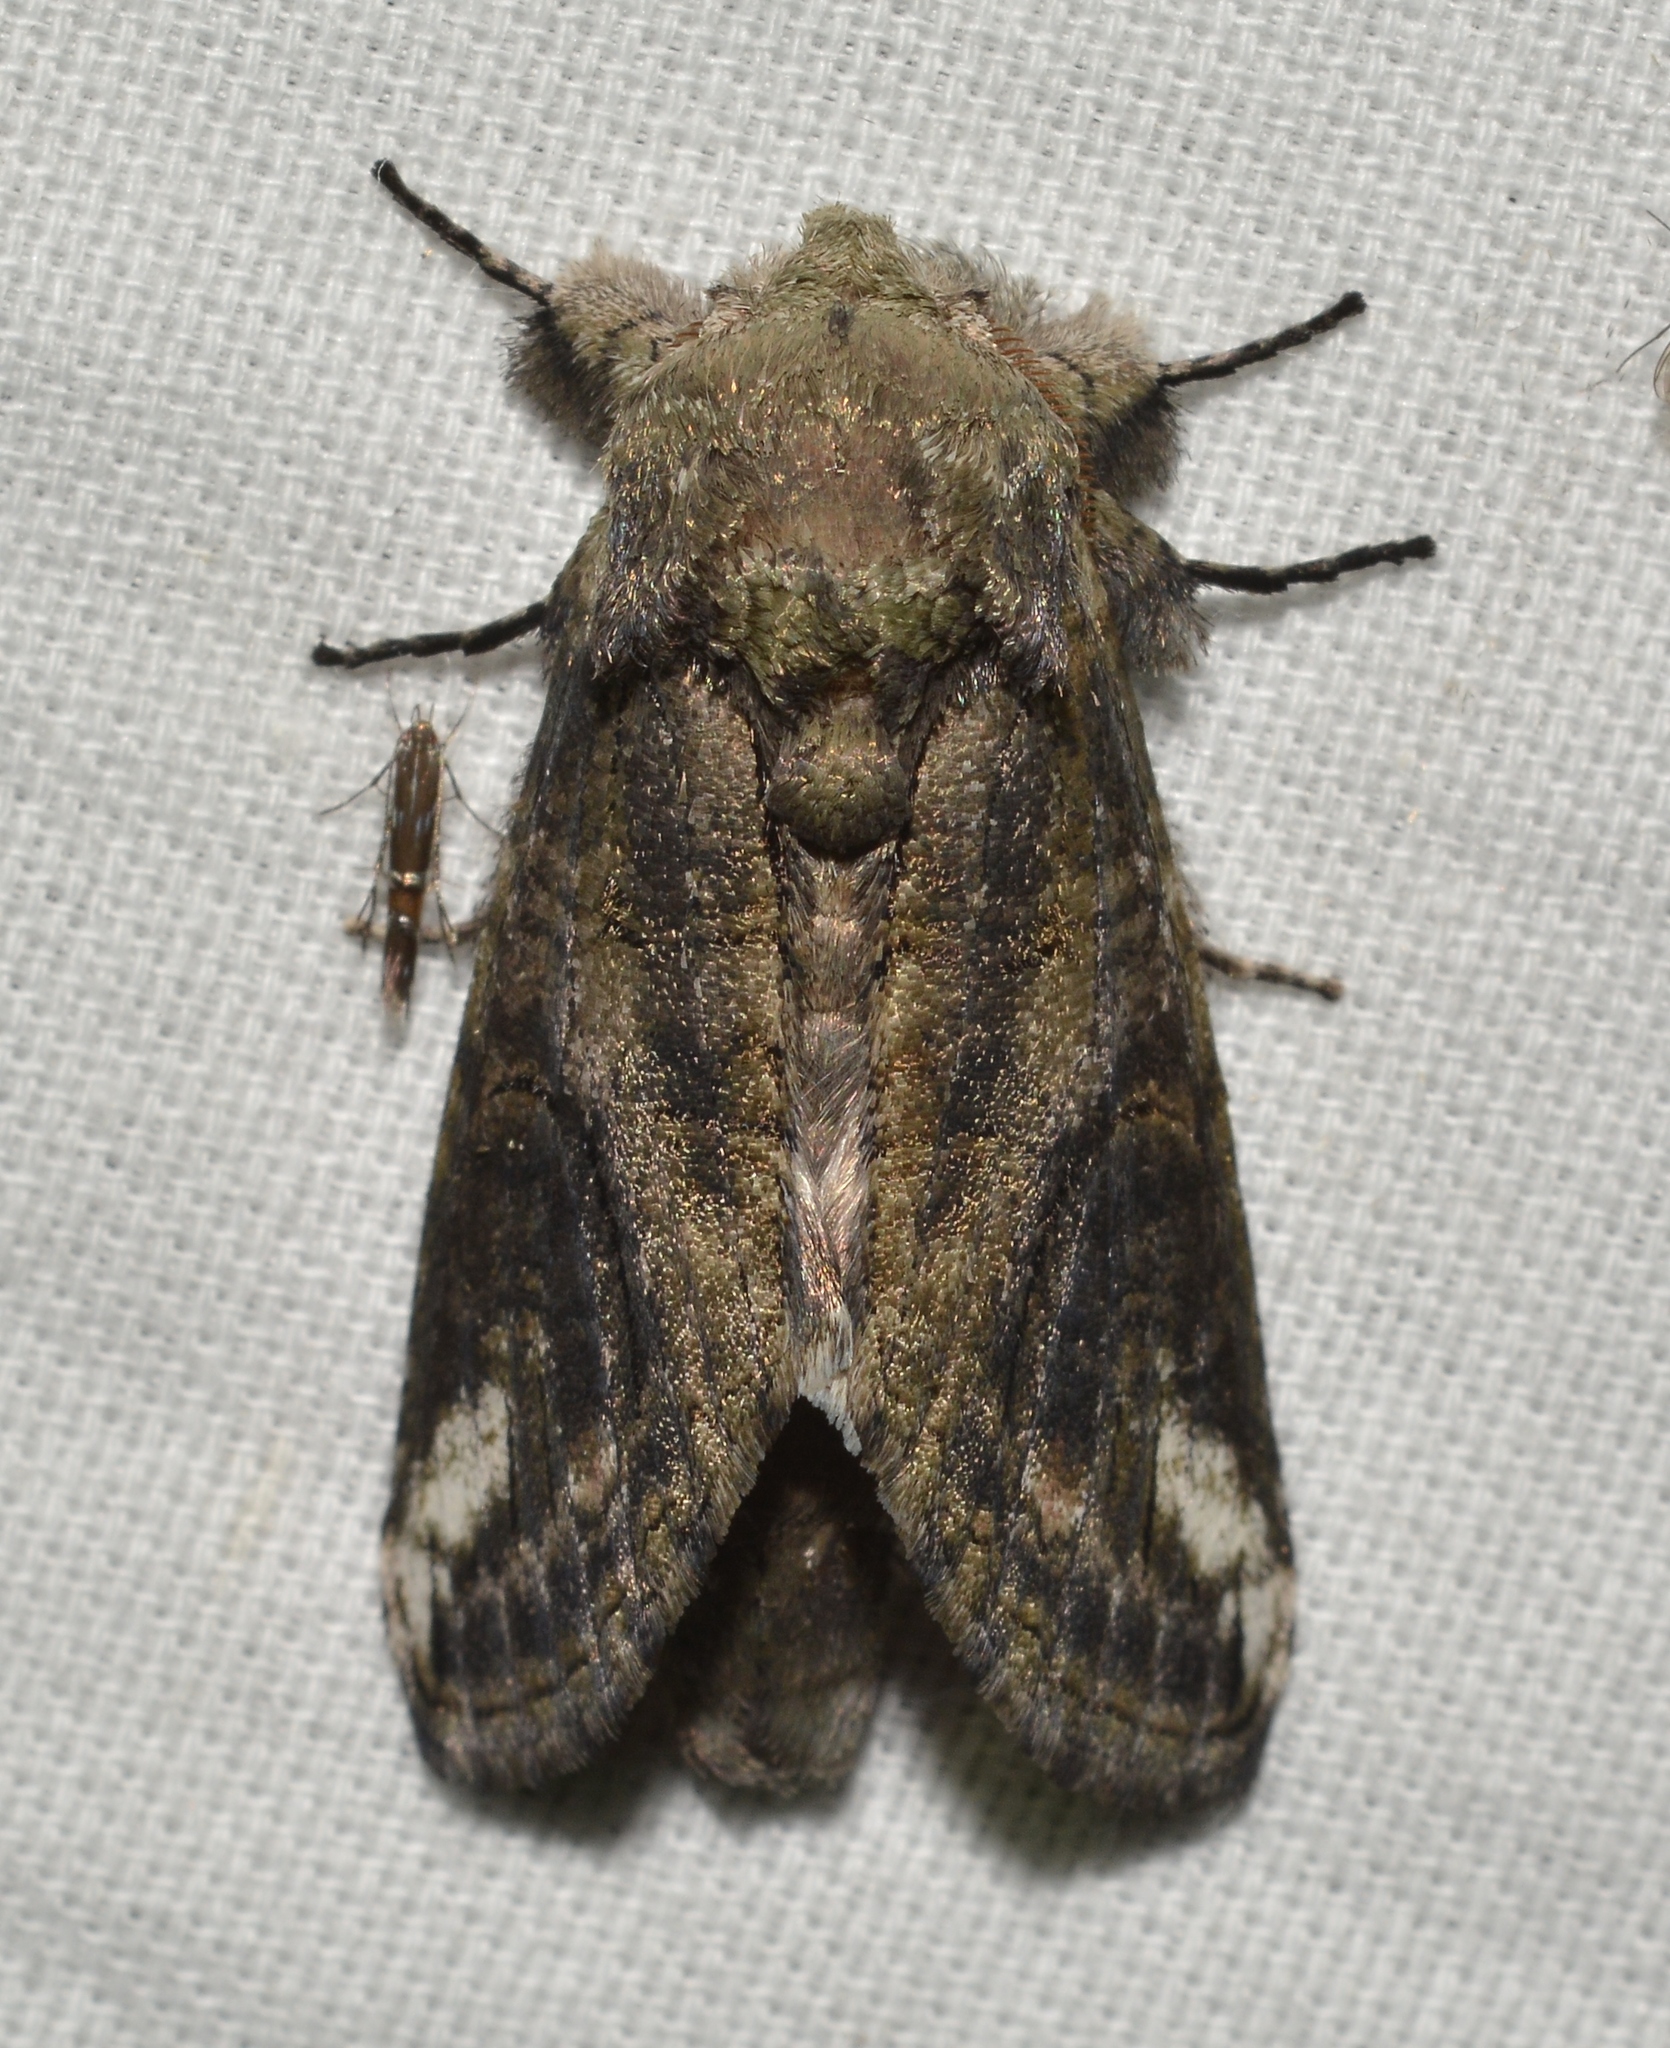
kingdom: Animalia
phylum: Arthropoda
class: Insecta
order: Lepidoptera
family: Notodontidae
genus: Heterocampa
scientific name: Heterocampa obliqua
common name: Oblique heterocampa
